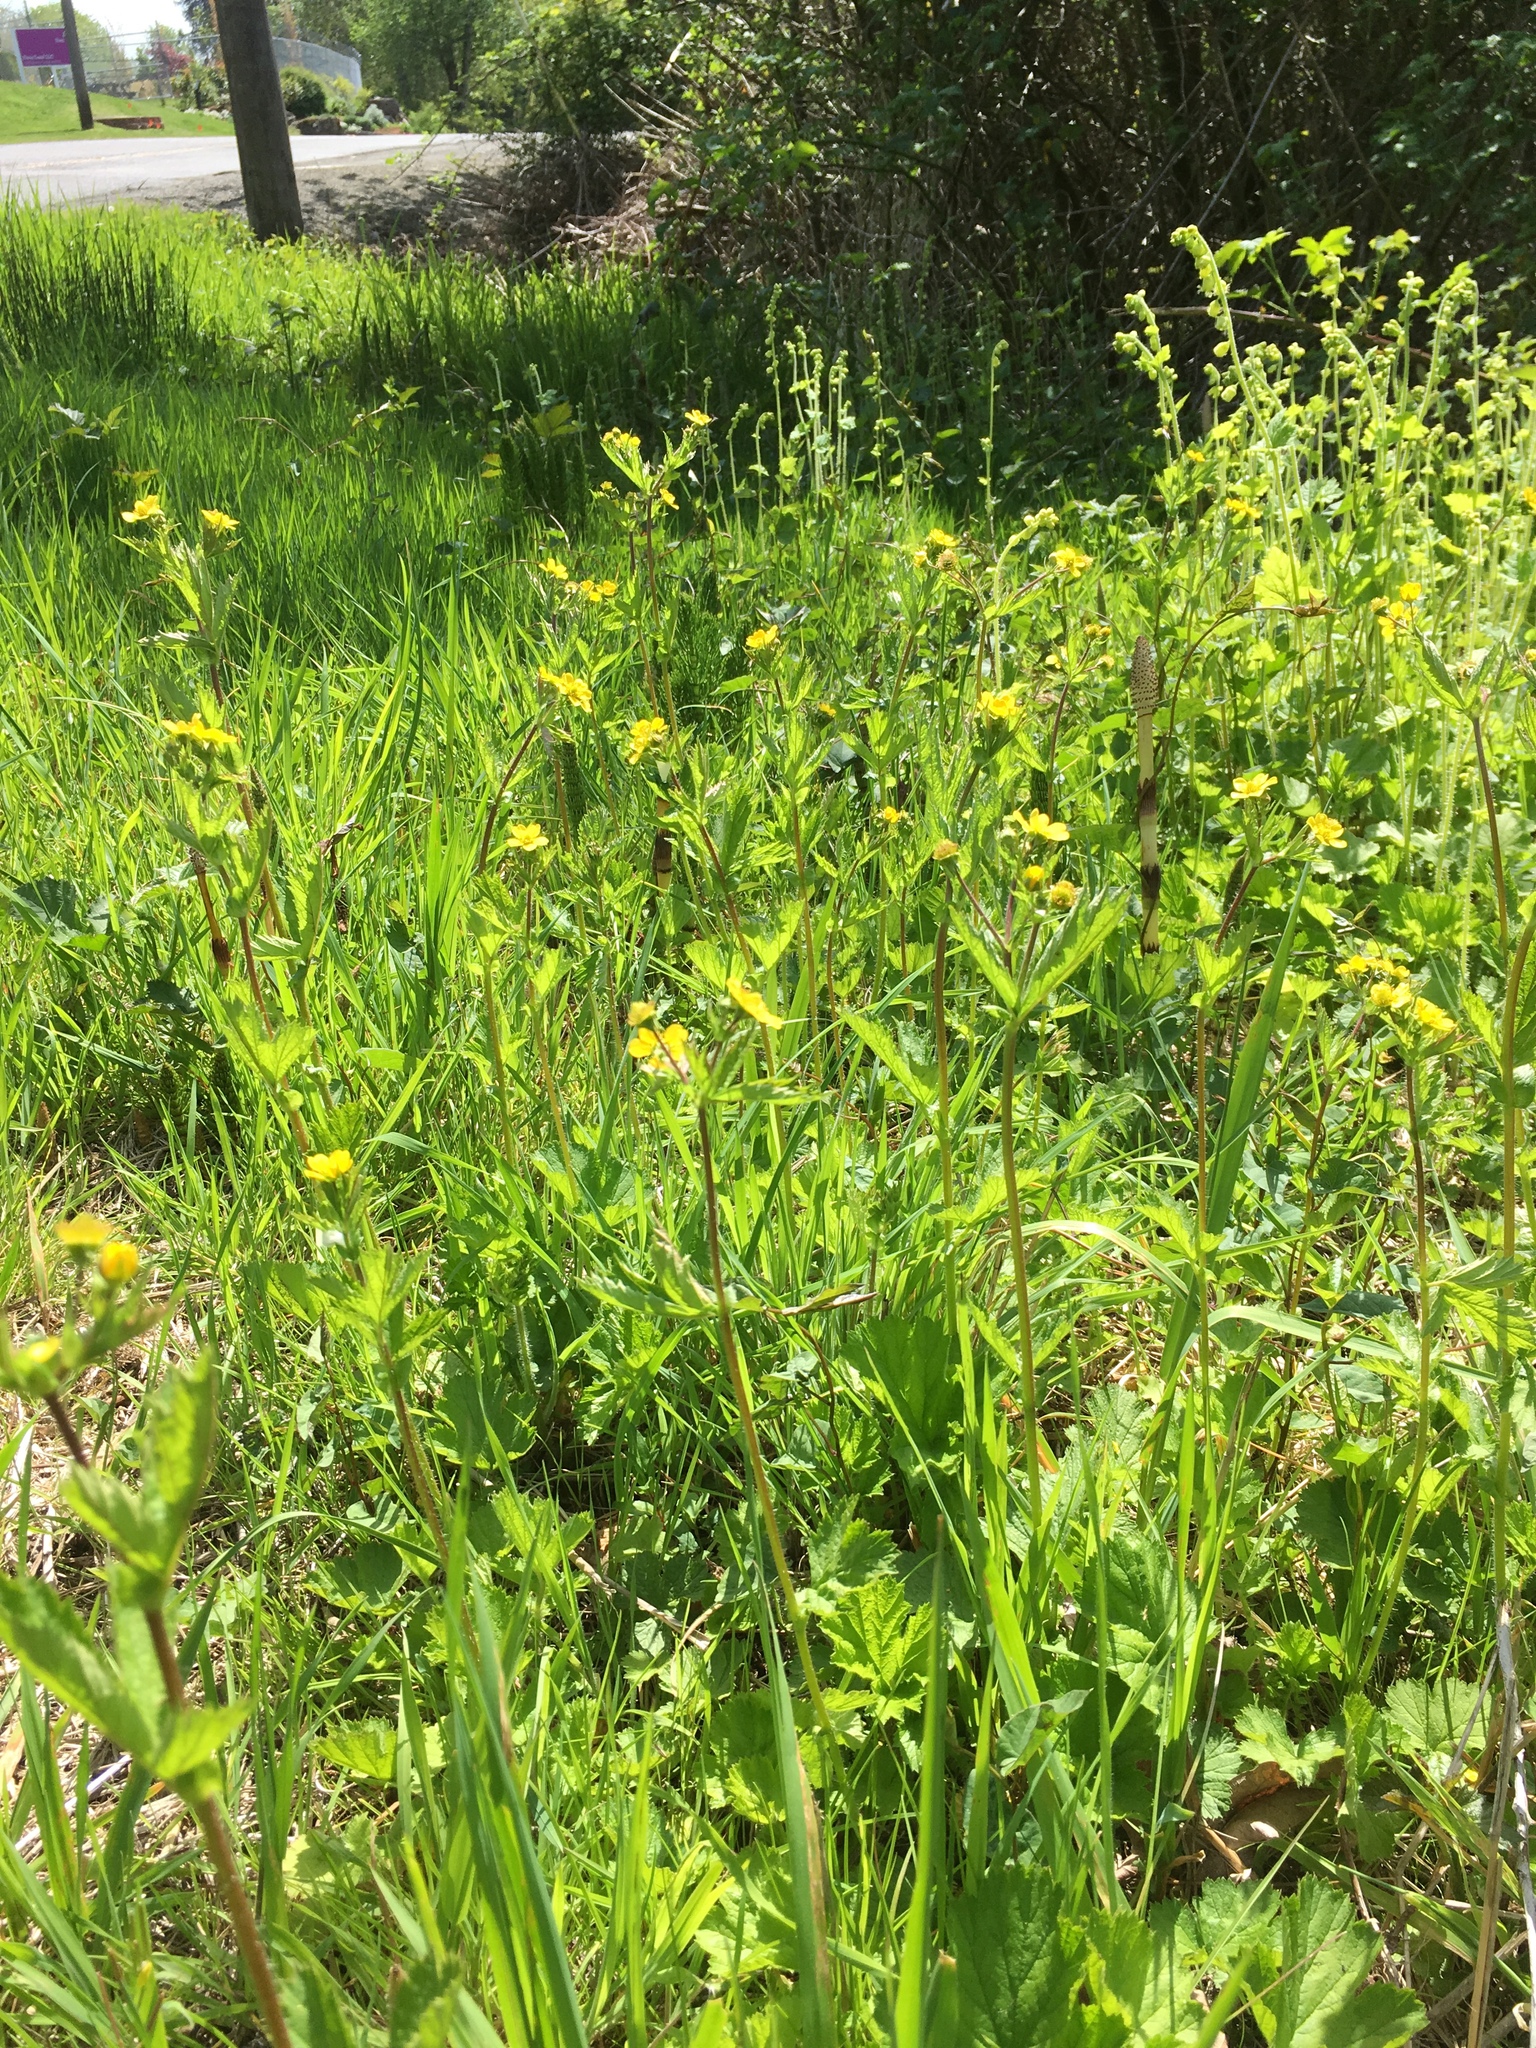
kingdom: Plantae
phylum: Tracheophyta
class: Magnoliopsida
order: Rosales
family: Rosaceae
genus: Geum
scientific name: Geum macrophyllum
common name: Large-leaved avens
